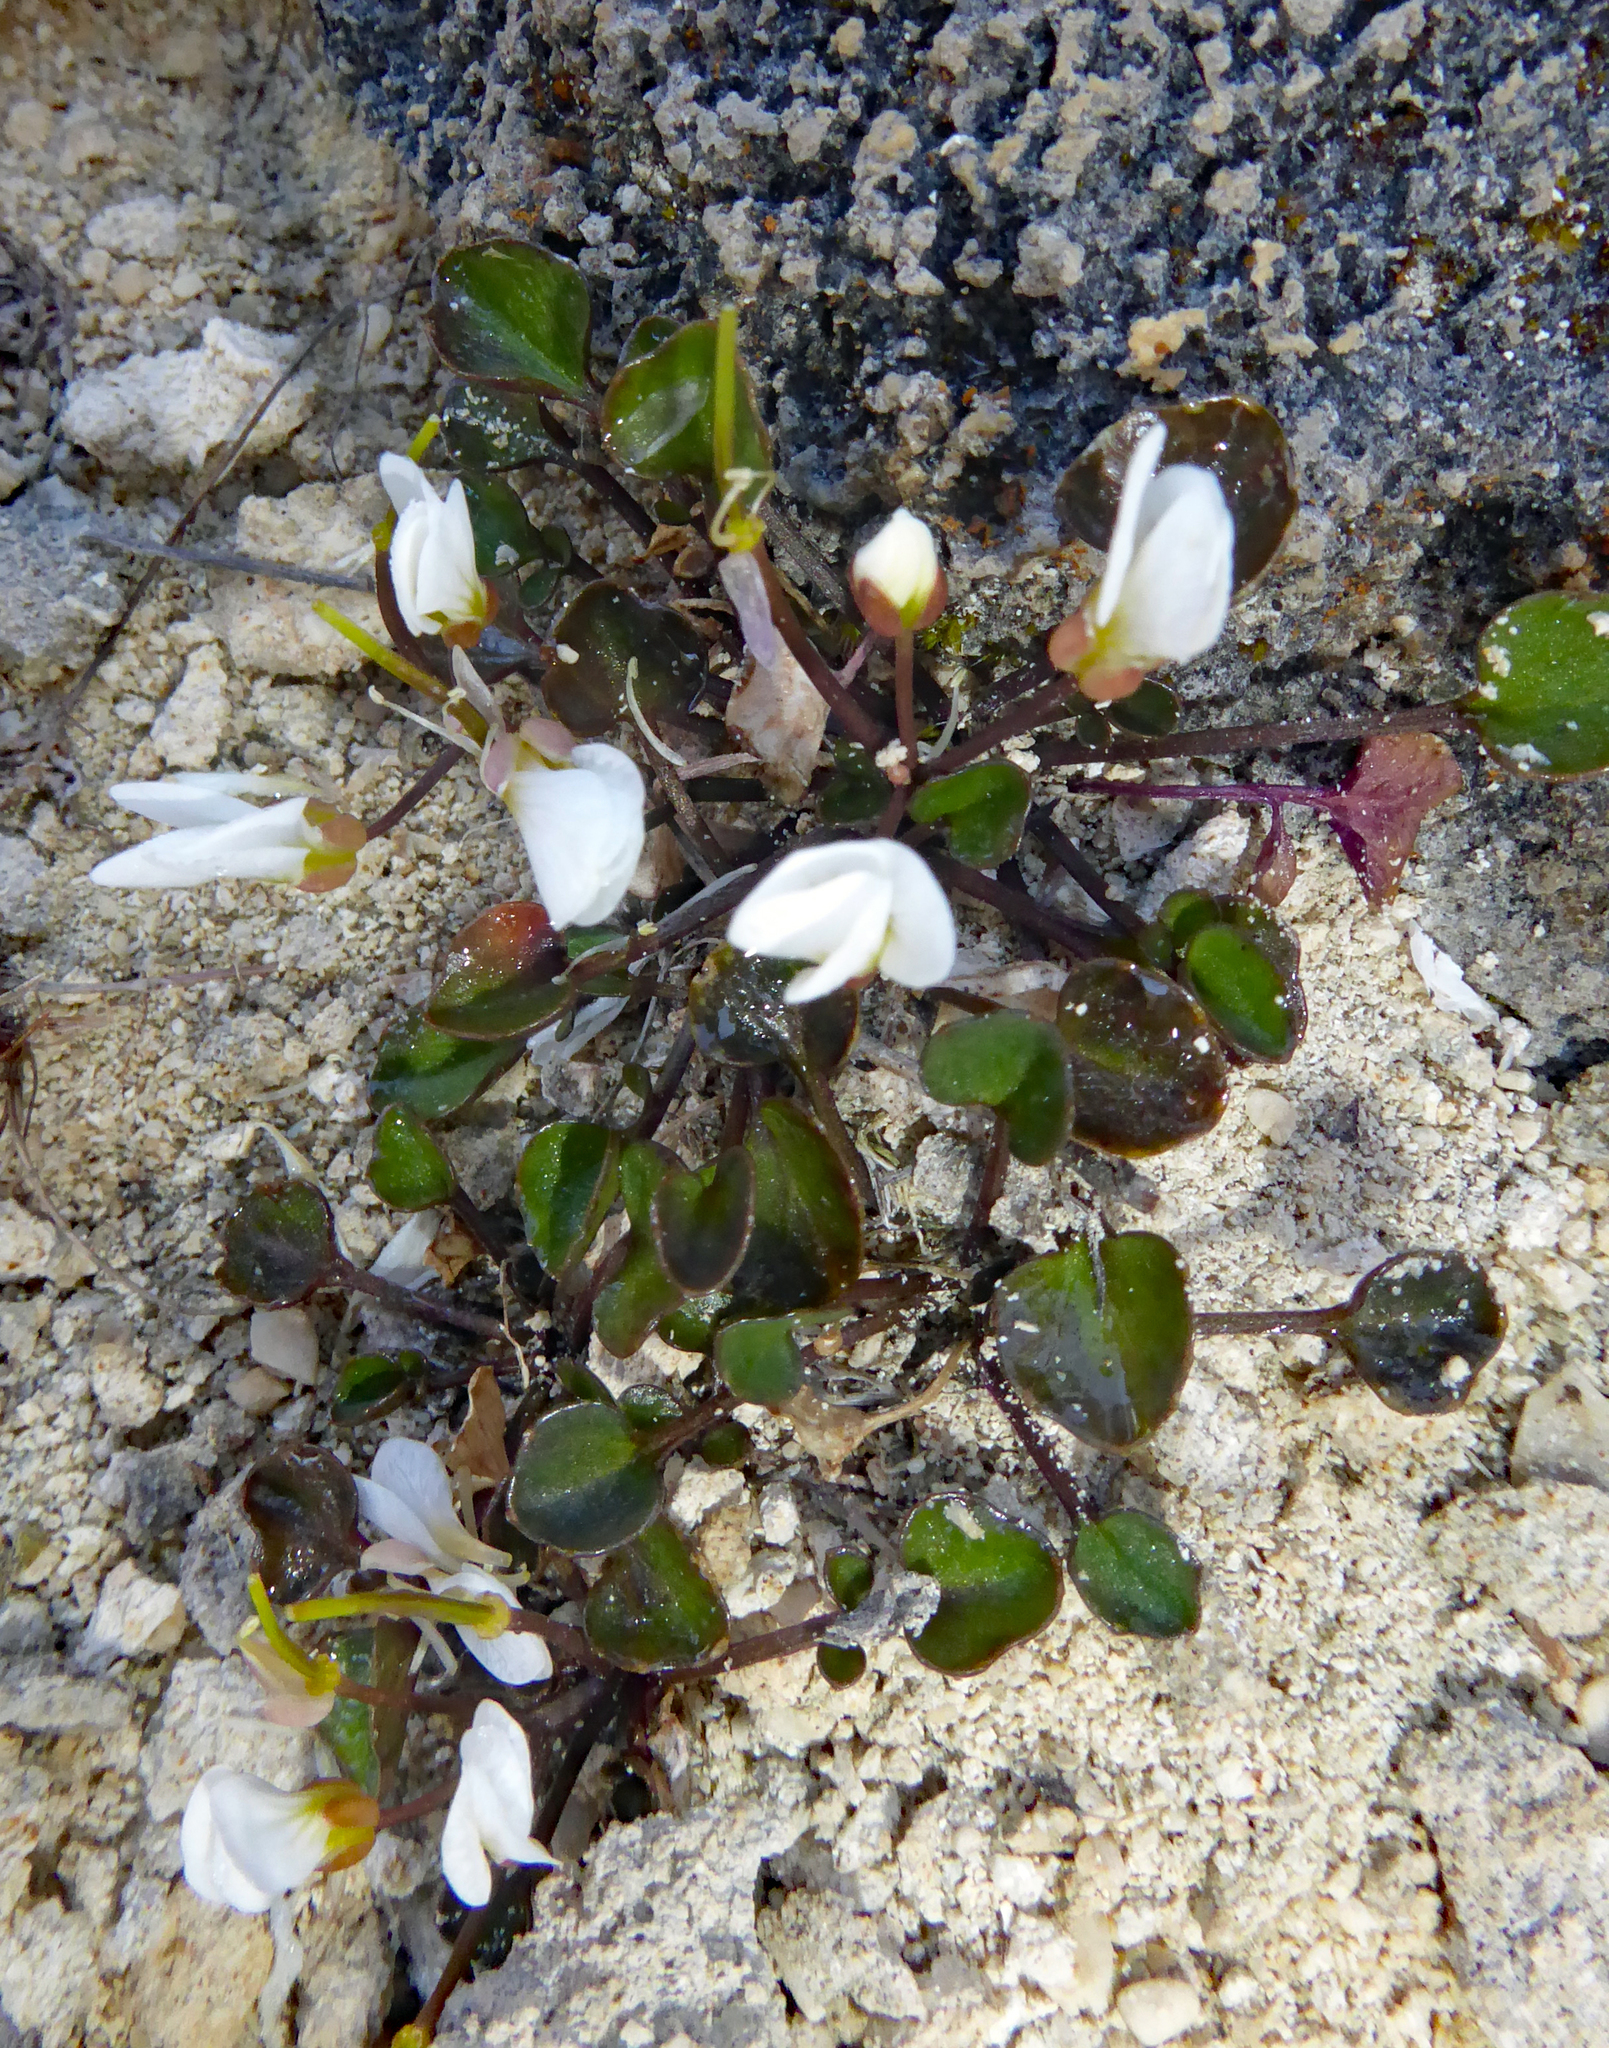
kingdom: Plantae
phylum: Tracheophyta
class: Magnoliopsida
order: Brassicales
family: Brassicaceae
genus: Cardamine
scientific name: Cardamine magnifica
